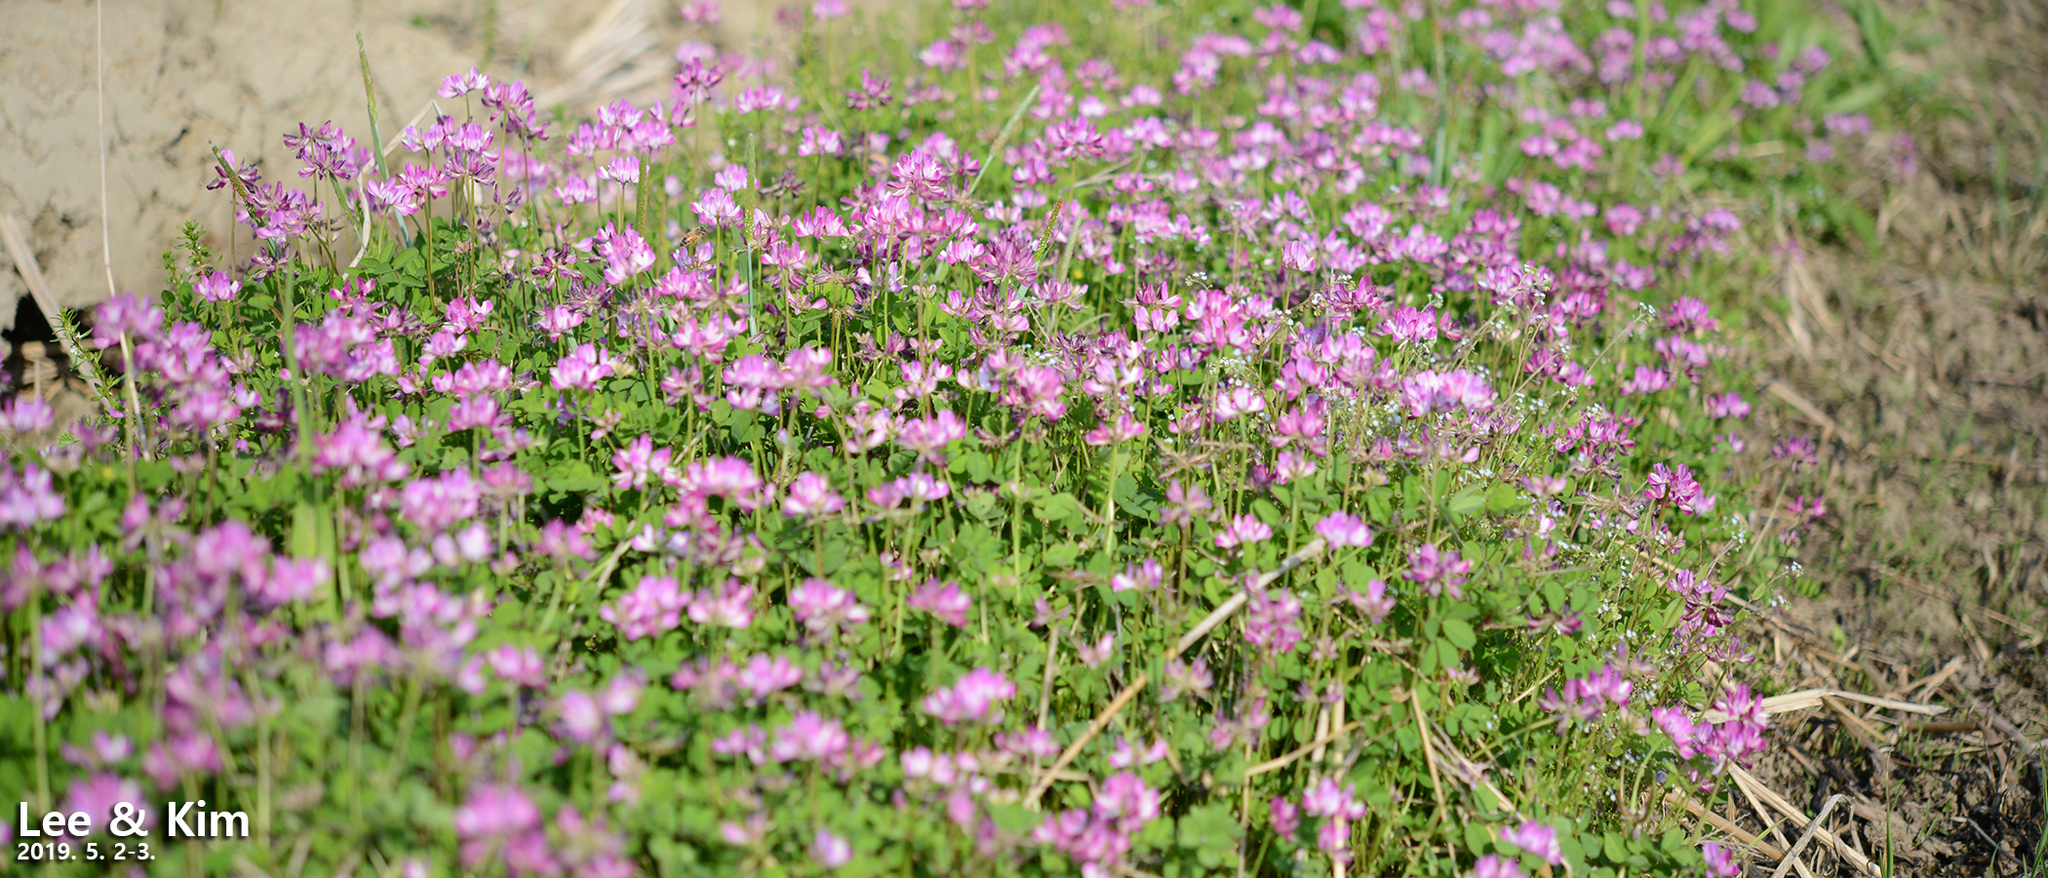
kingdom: Plantae
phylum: Tracheophyta
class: Magnoliopsida
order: Fabales
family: Fabaceae
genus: Astragalus
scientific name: Astragalus sinicus
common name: Chinese milk-vetch
